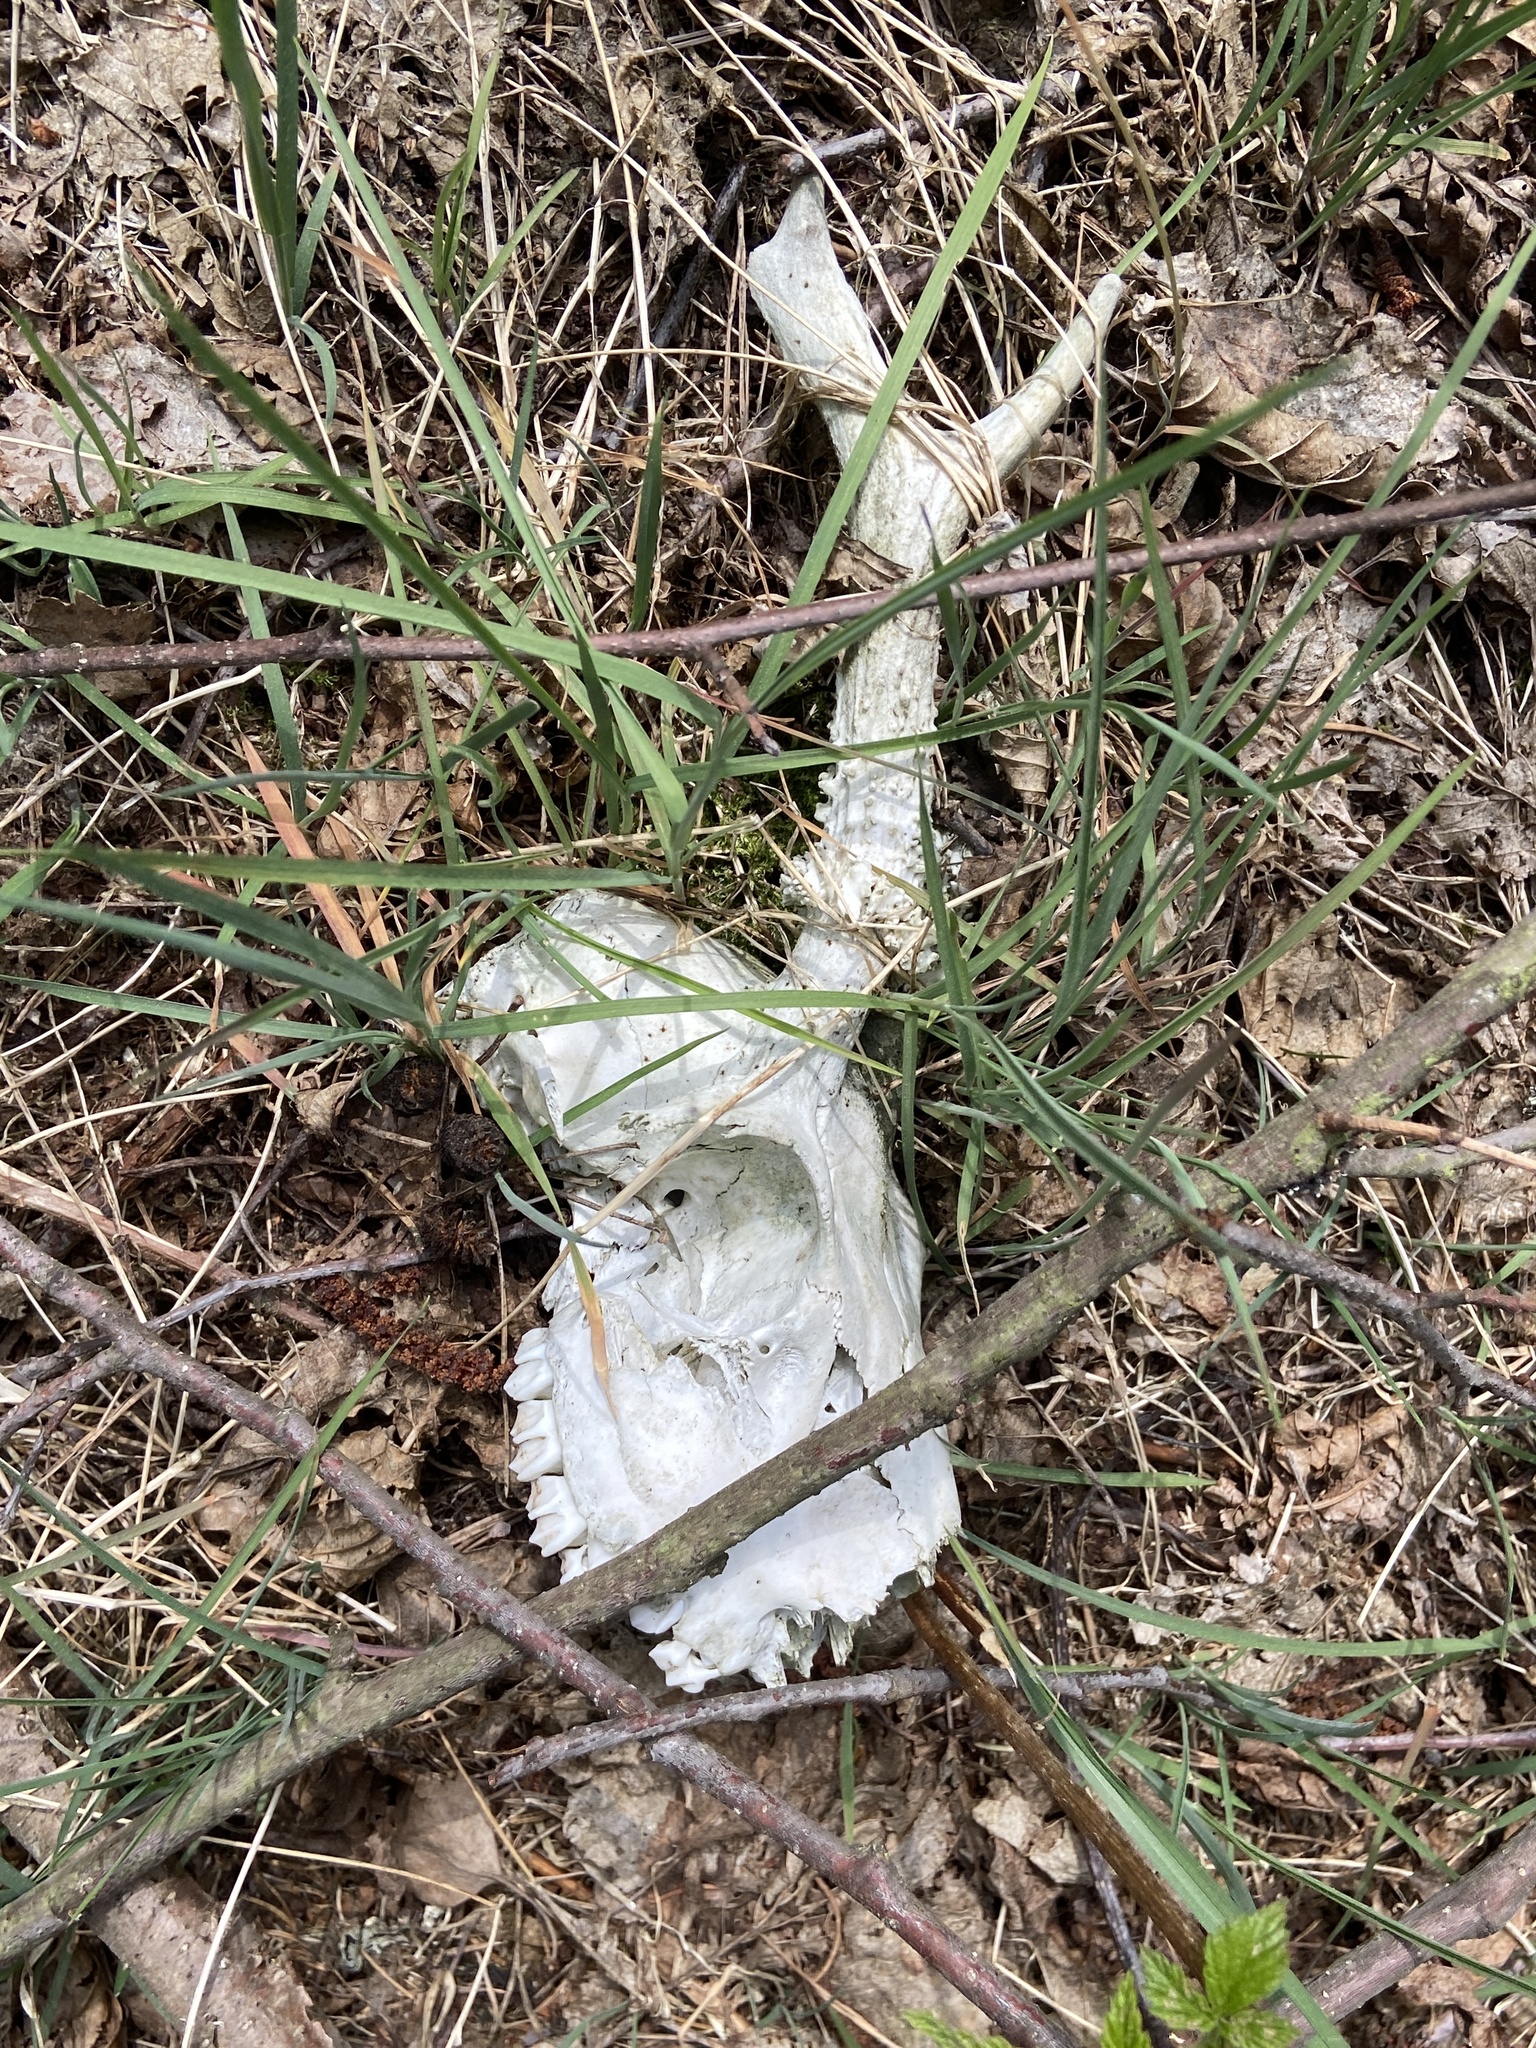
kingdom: Animalia
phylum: Chordata
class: Mammalia
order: Artiodactyla
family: Cervidae
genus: Capreolus
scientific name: Capreolus capreolus
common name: Western roe deer
